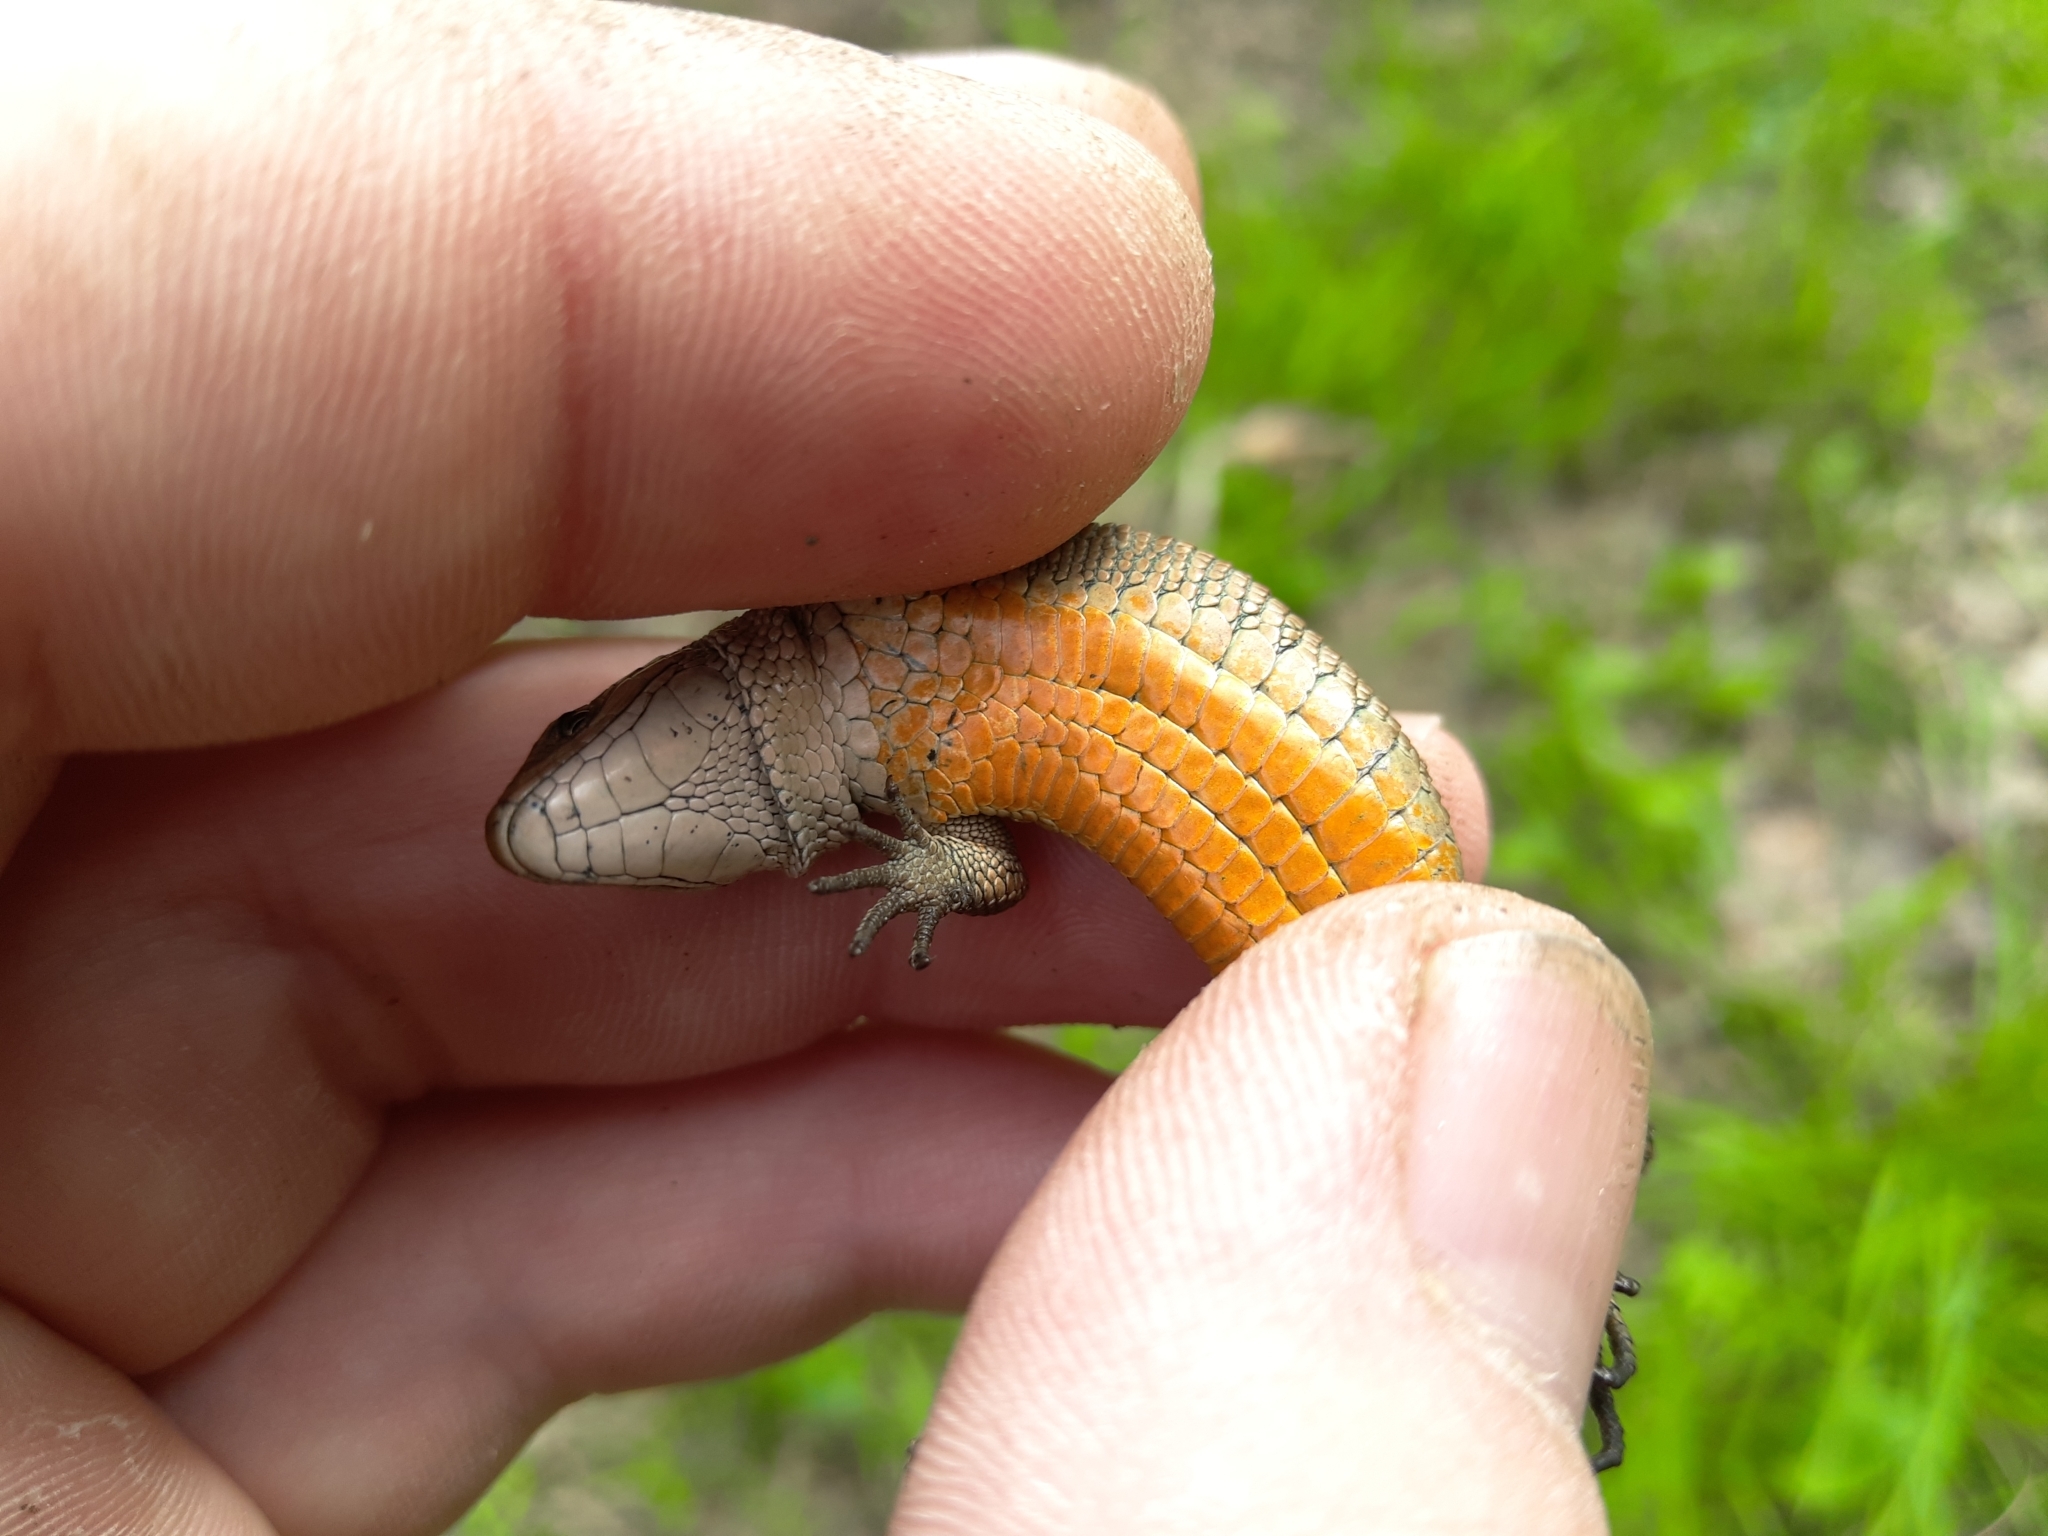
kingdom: Animalia
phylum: Chordata
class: Squamata
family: Lacertidae
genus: Zootoca
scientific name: Zootoca vivipara
